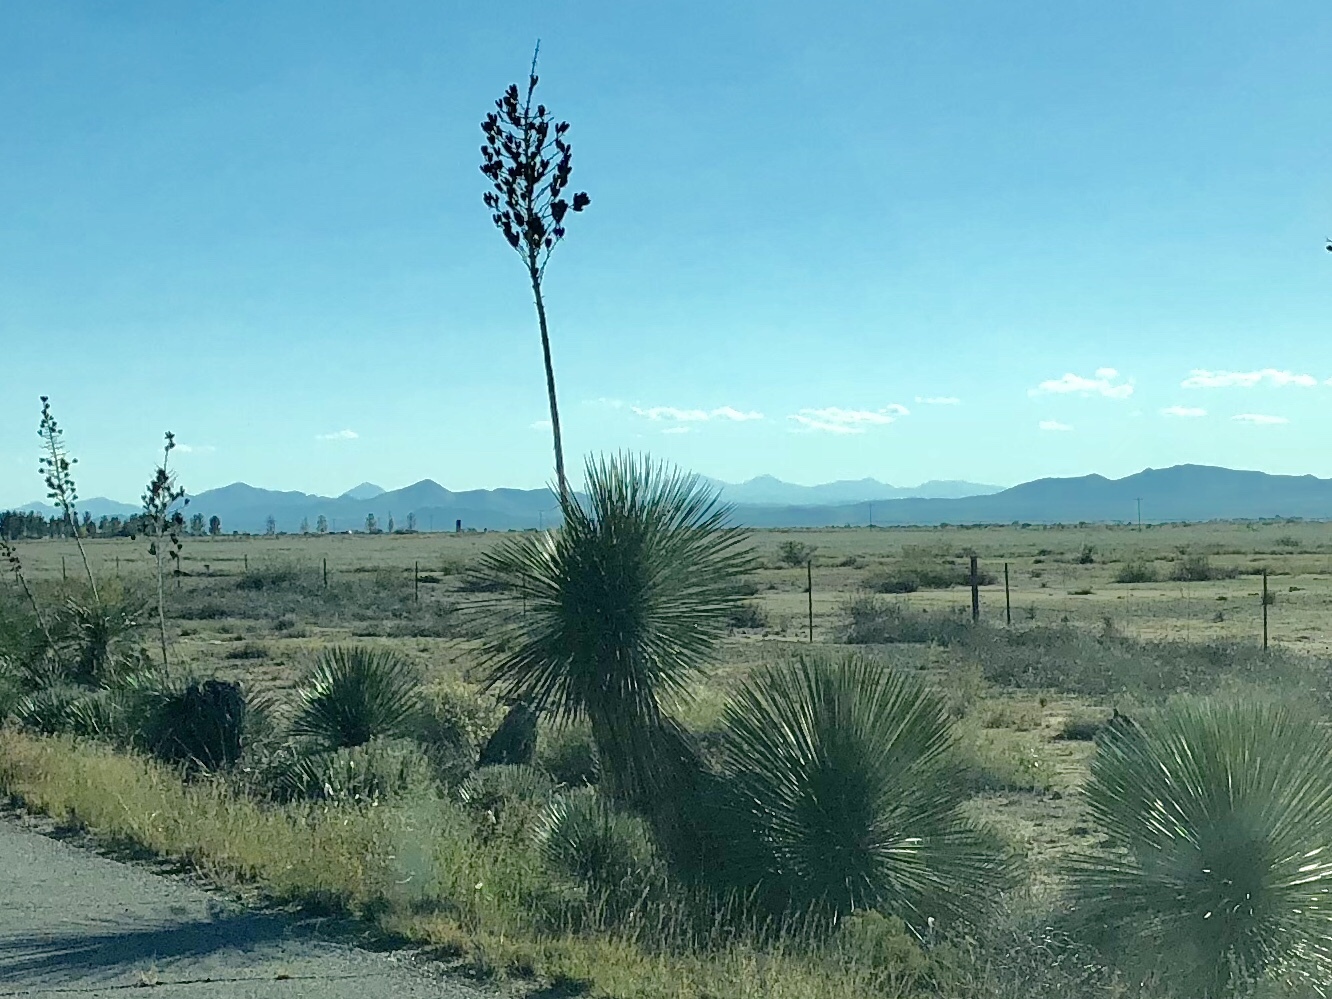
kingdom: Plantae
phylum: Tracheophyta
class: Liliopsida
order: Asparagales
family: Asparagaceae
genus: Yucca
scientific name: Yucca elata
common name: Palmella
